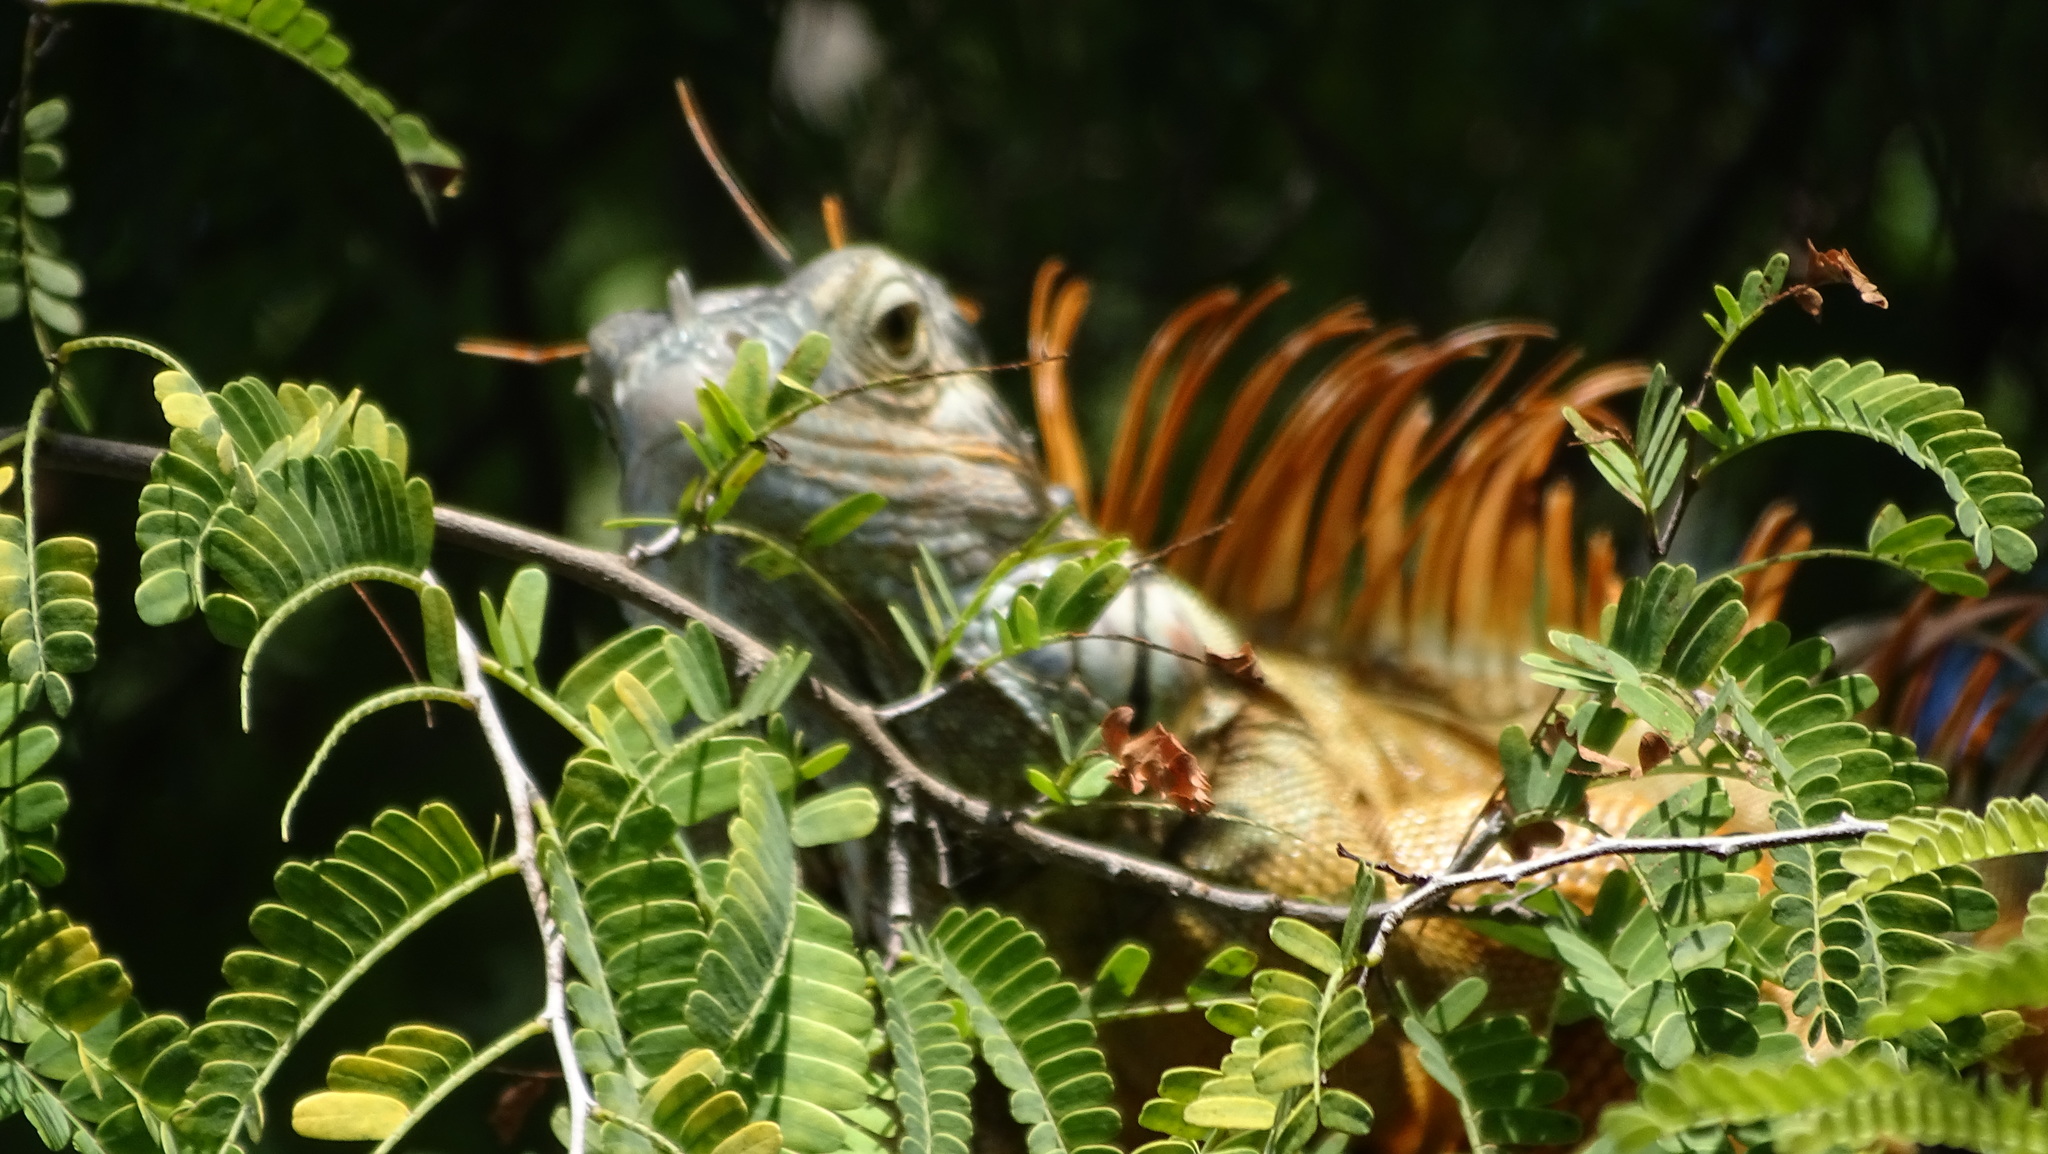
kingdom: Animalia
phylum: Chordata
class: Squamata
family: Iguanidae
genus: Iguana
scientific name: Iguana iguana
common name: Green iguana
